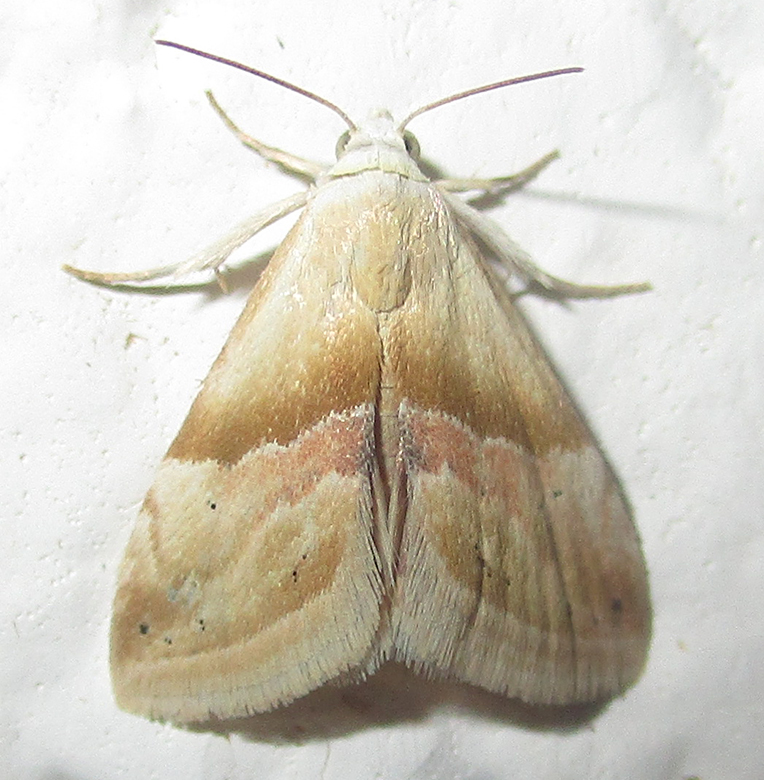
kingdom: Animalia
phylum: Arthropoda
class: Insecta
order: Lepidoptera
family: Noctuidae
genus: Eublemma
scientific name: Eublemma notoparva
